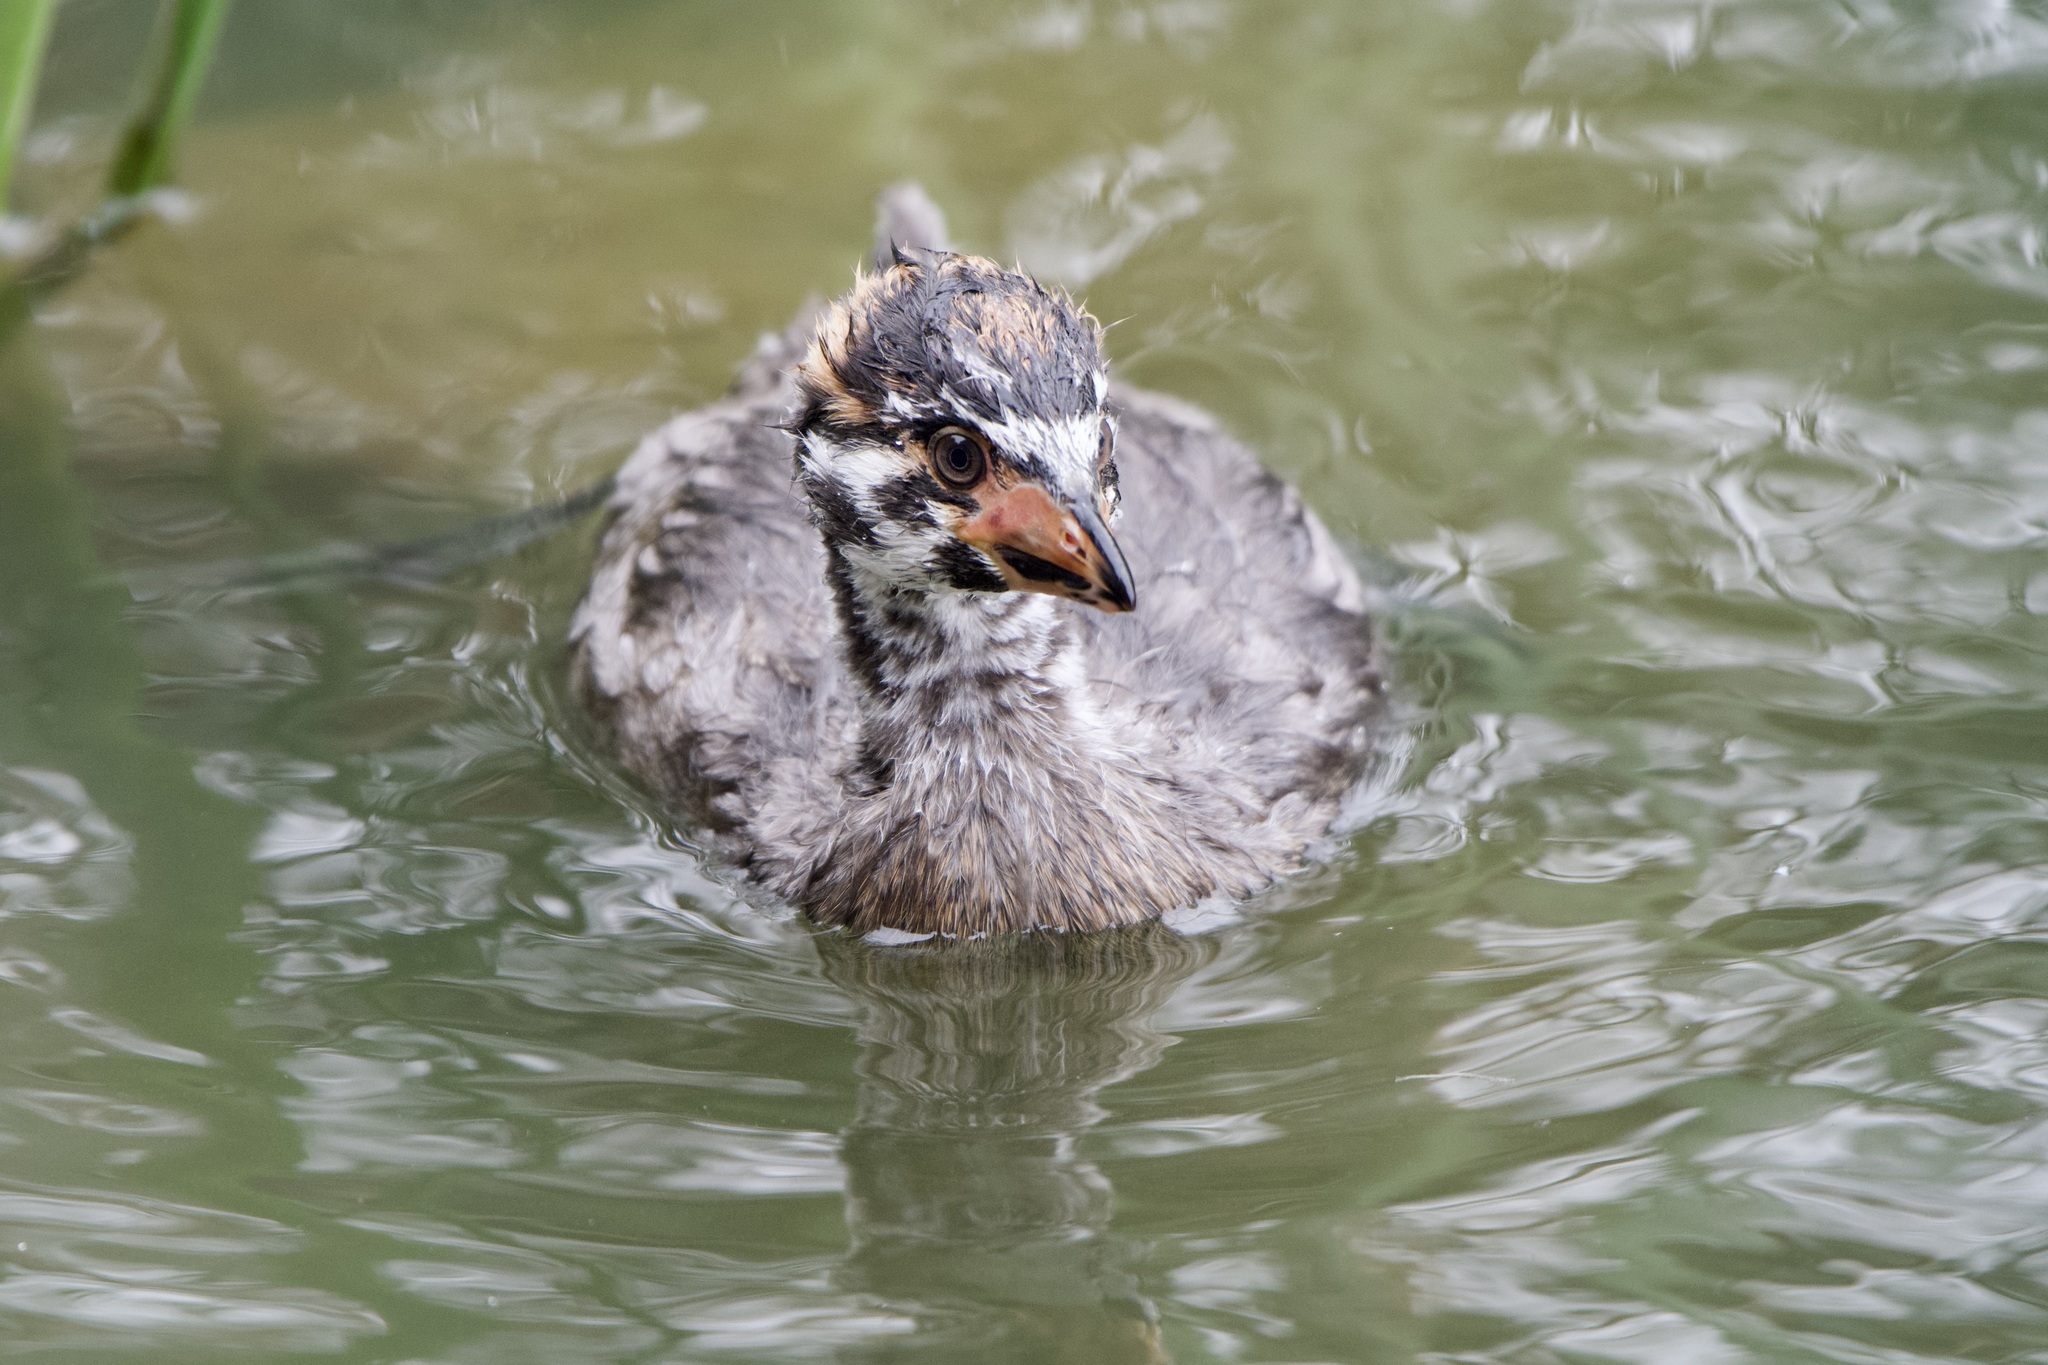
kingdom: Animalia
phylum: Chordata
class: Aves
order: Podicipediformes
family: Podicipedidae
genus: Podilymbus
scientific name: Podilymbus podiceps
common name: Pied-billed grebe
